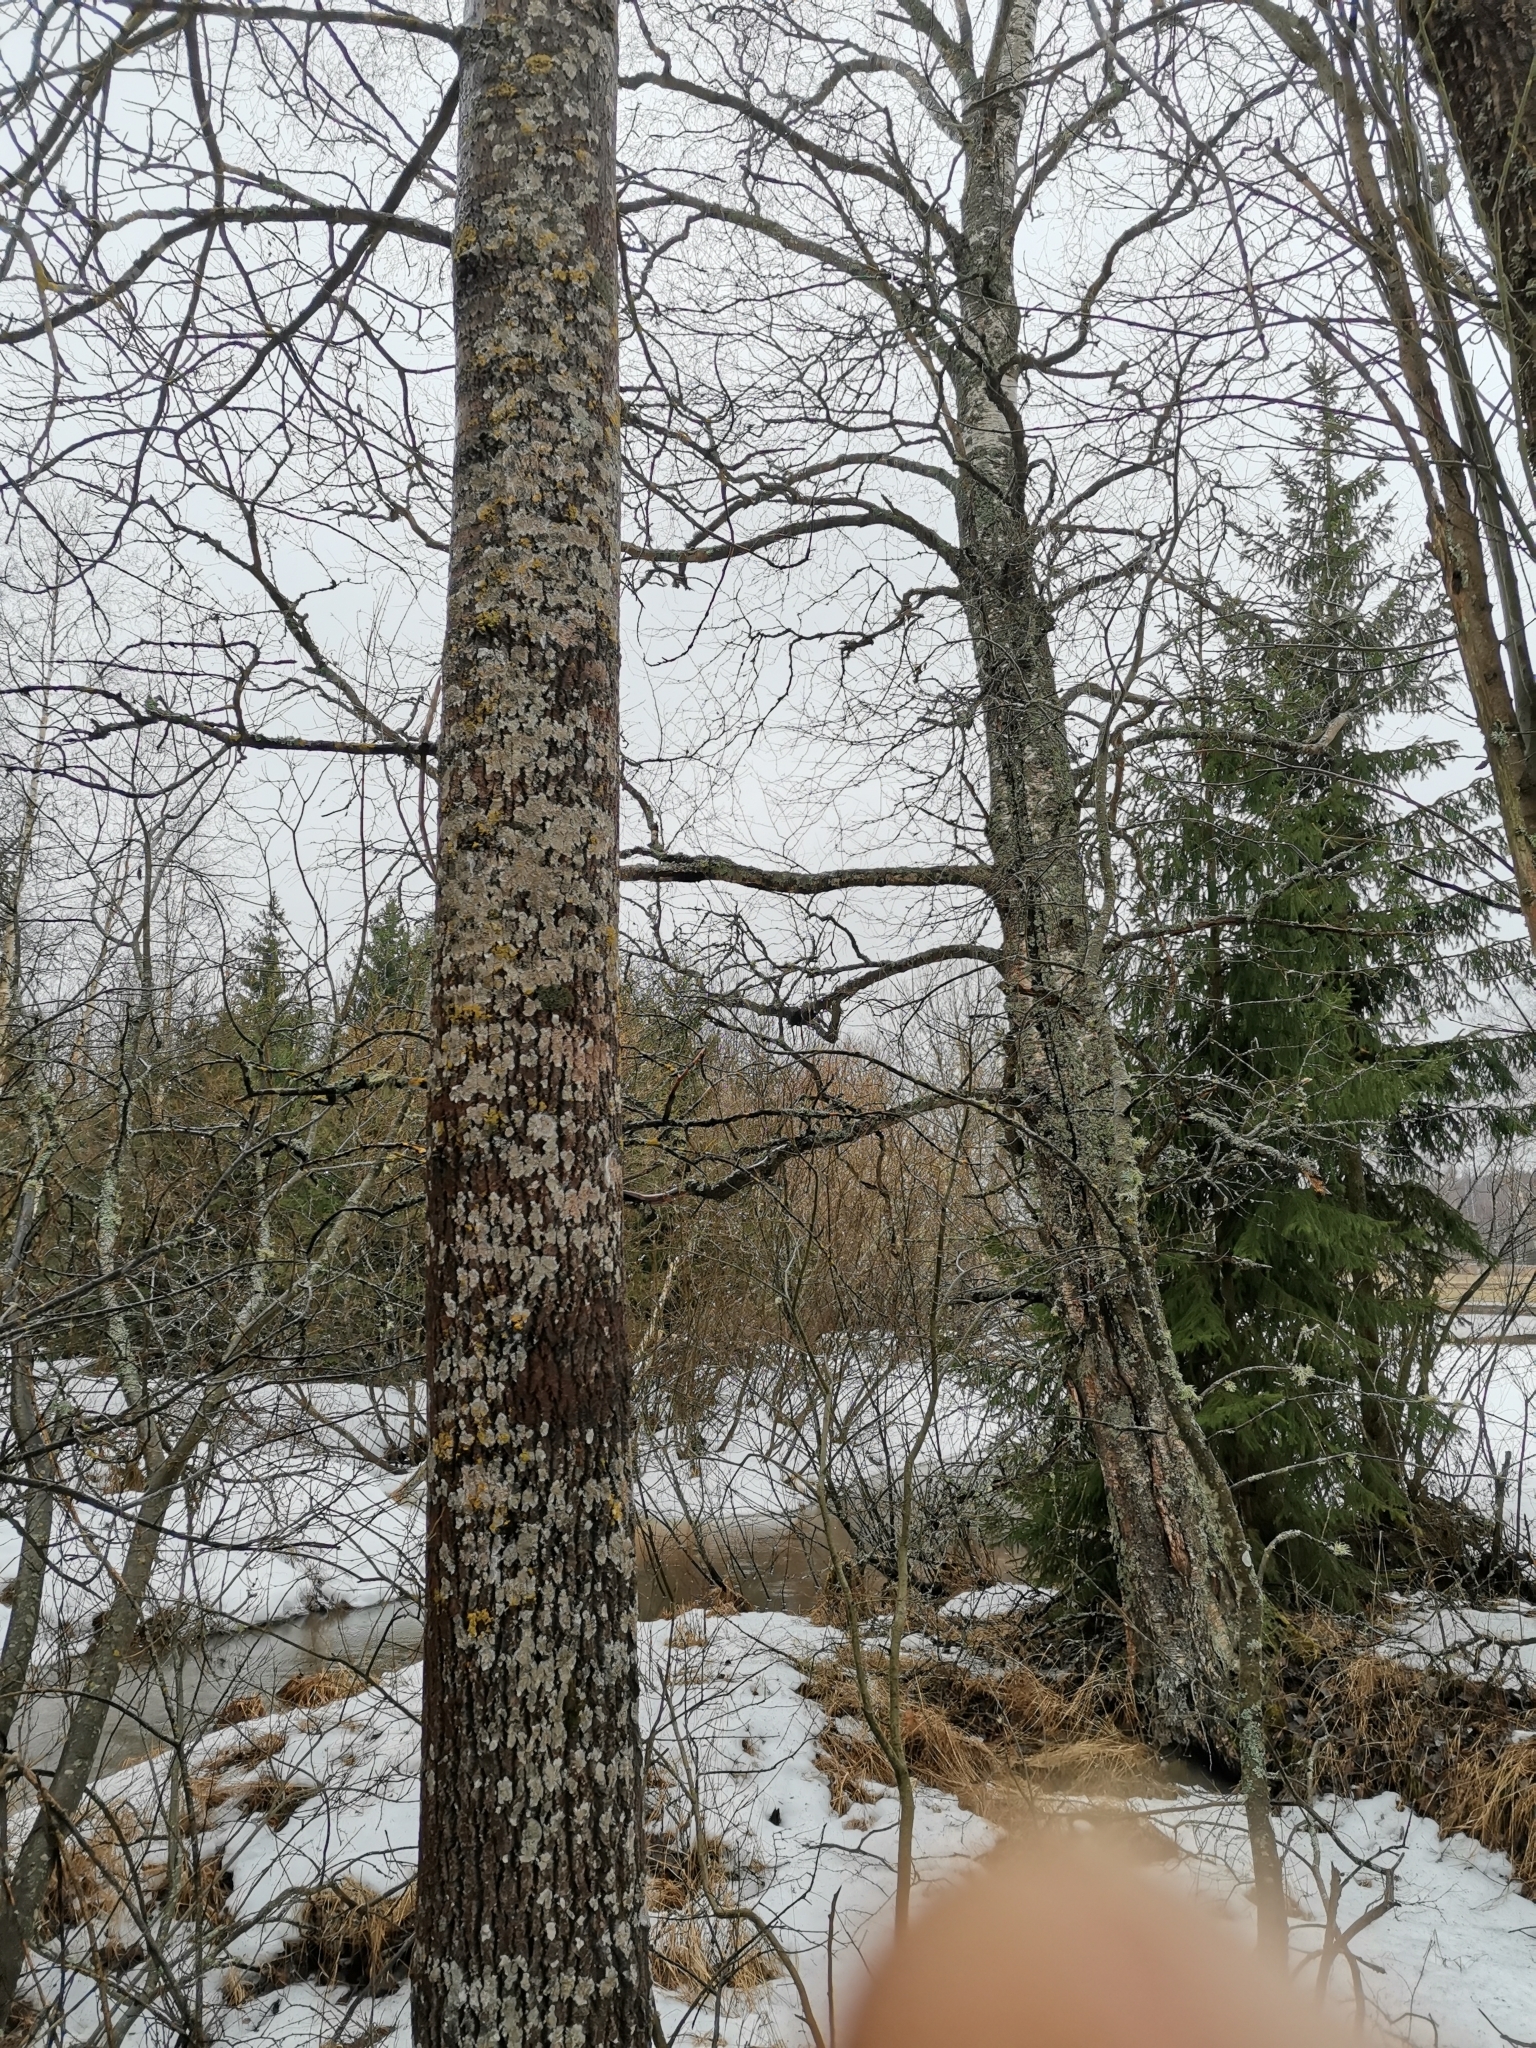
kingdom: Animalia
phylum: Chordata
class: Mammalia
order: Rodentia
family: Sciuridae
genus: Pteromys
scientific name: Pteromys volans
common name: Siberian flying squirrel
